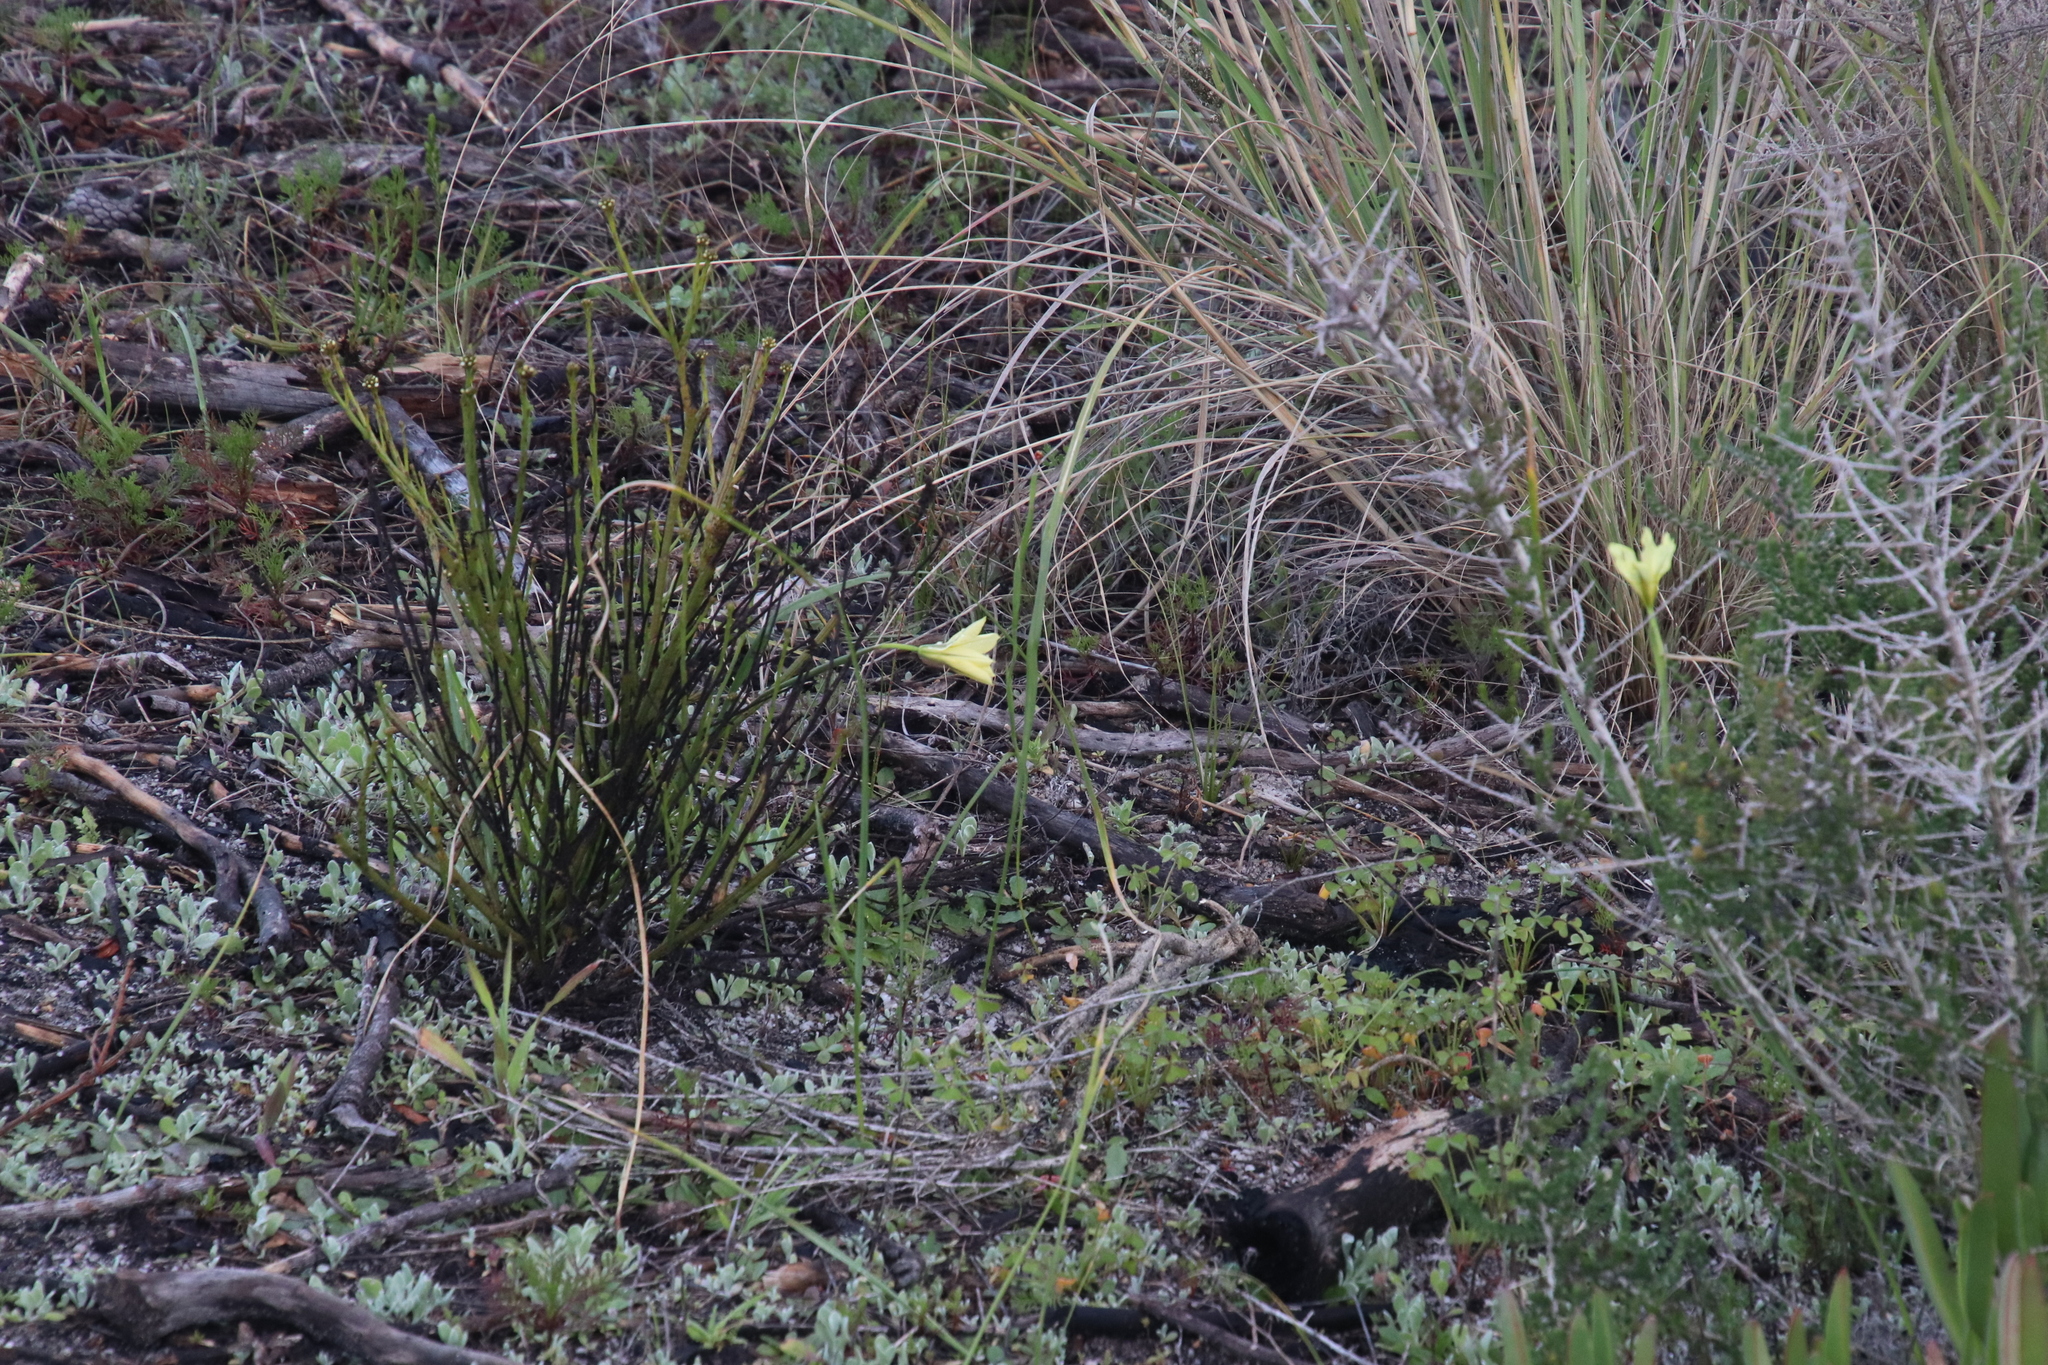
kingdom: Plantae
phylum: Tracheophyta
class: Liliopsida
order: Asparagales
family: Iridaceae
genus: Moraea
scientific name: Moraea collina
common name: Cape-tulip
